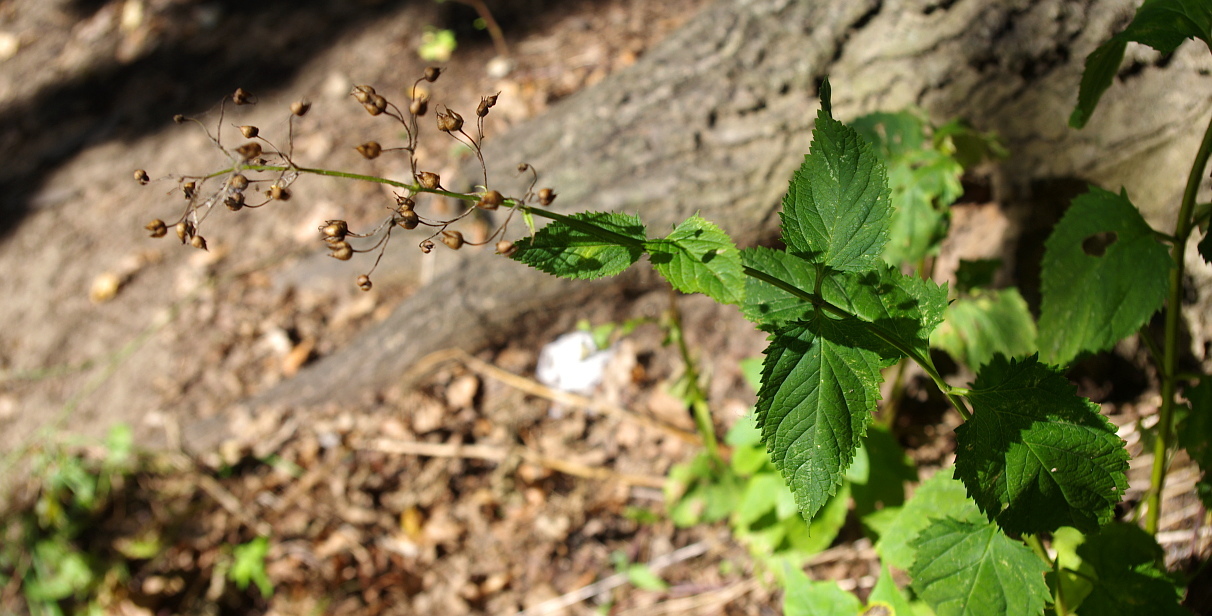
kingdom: Plantae
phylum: Tracheophyta
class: Magnoliopsida
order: Lamiales
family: Scrophulariaceae
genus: Scrophularia
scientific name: Scrophularia nodosa
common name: Common figwort
